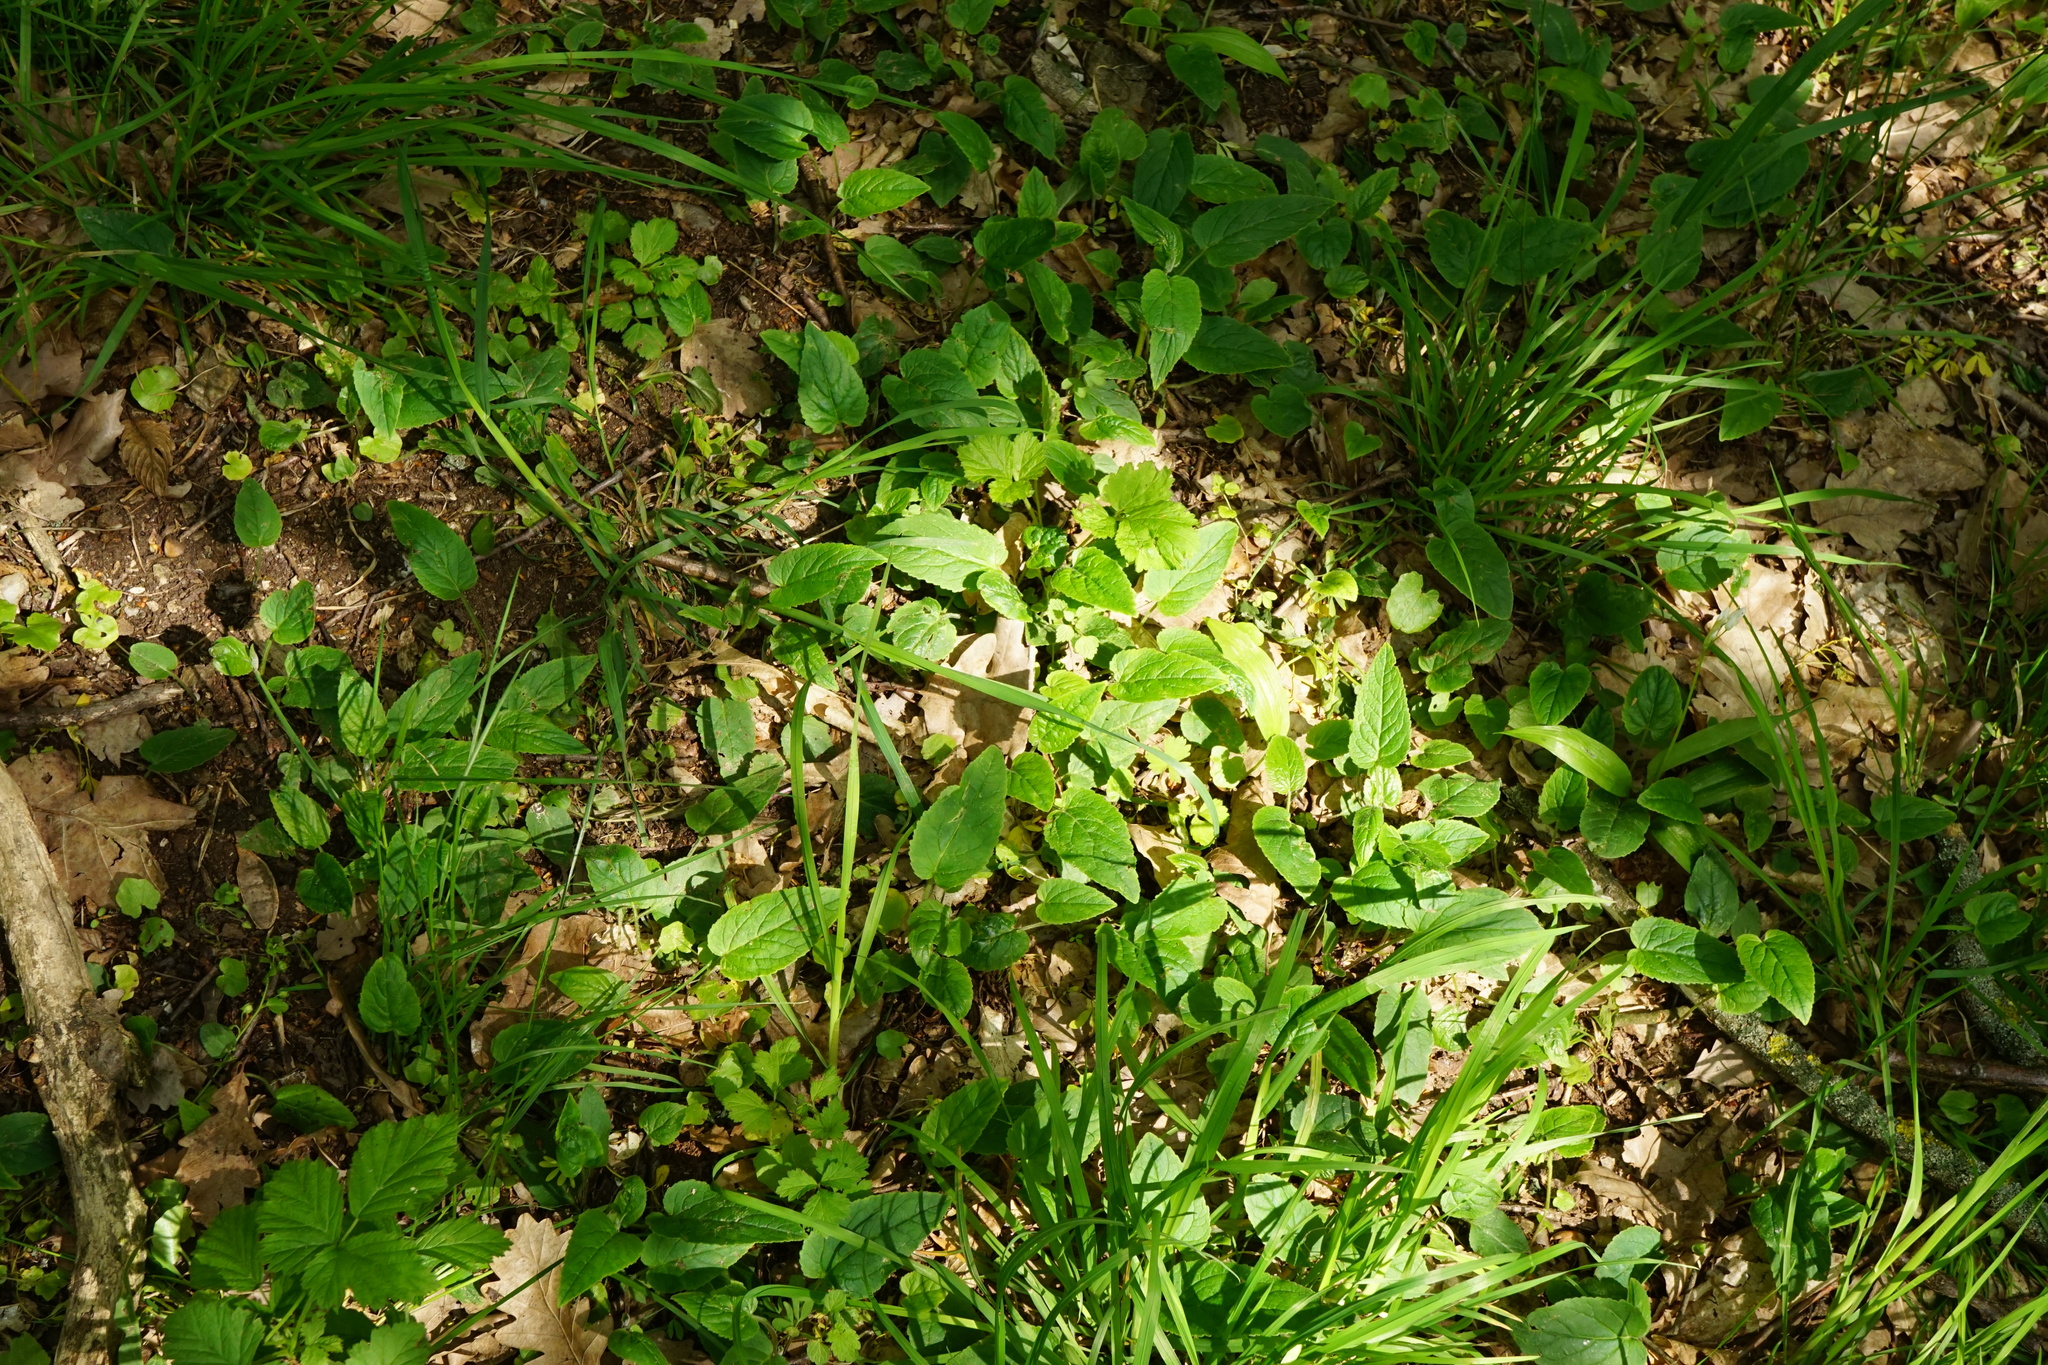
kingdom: Plantae
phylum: Tracheophyta
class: Magnoliopsida
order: Asterales
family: Campanulaceae
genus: Campanula
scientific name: Campanula rapunculoides
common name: Creeping bellflower
